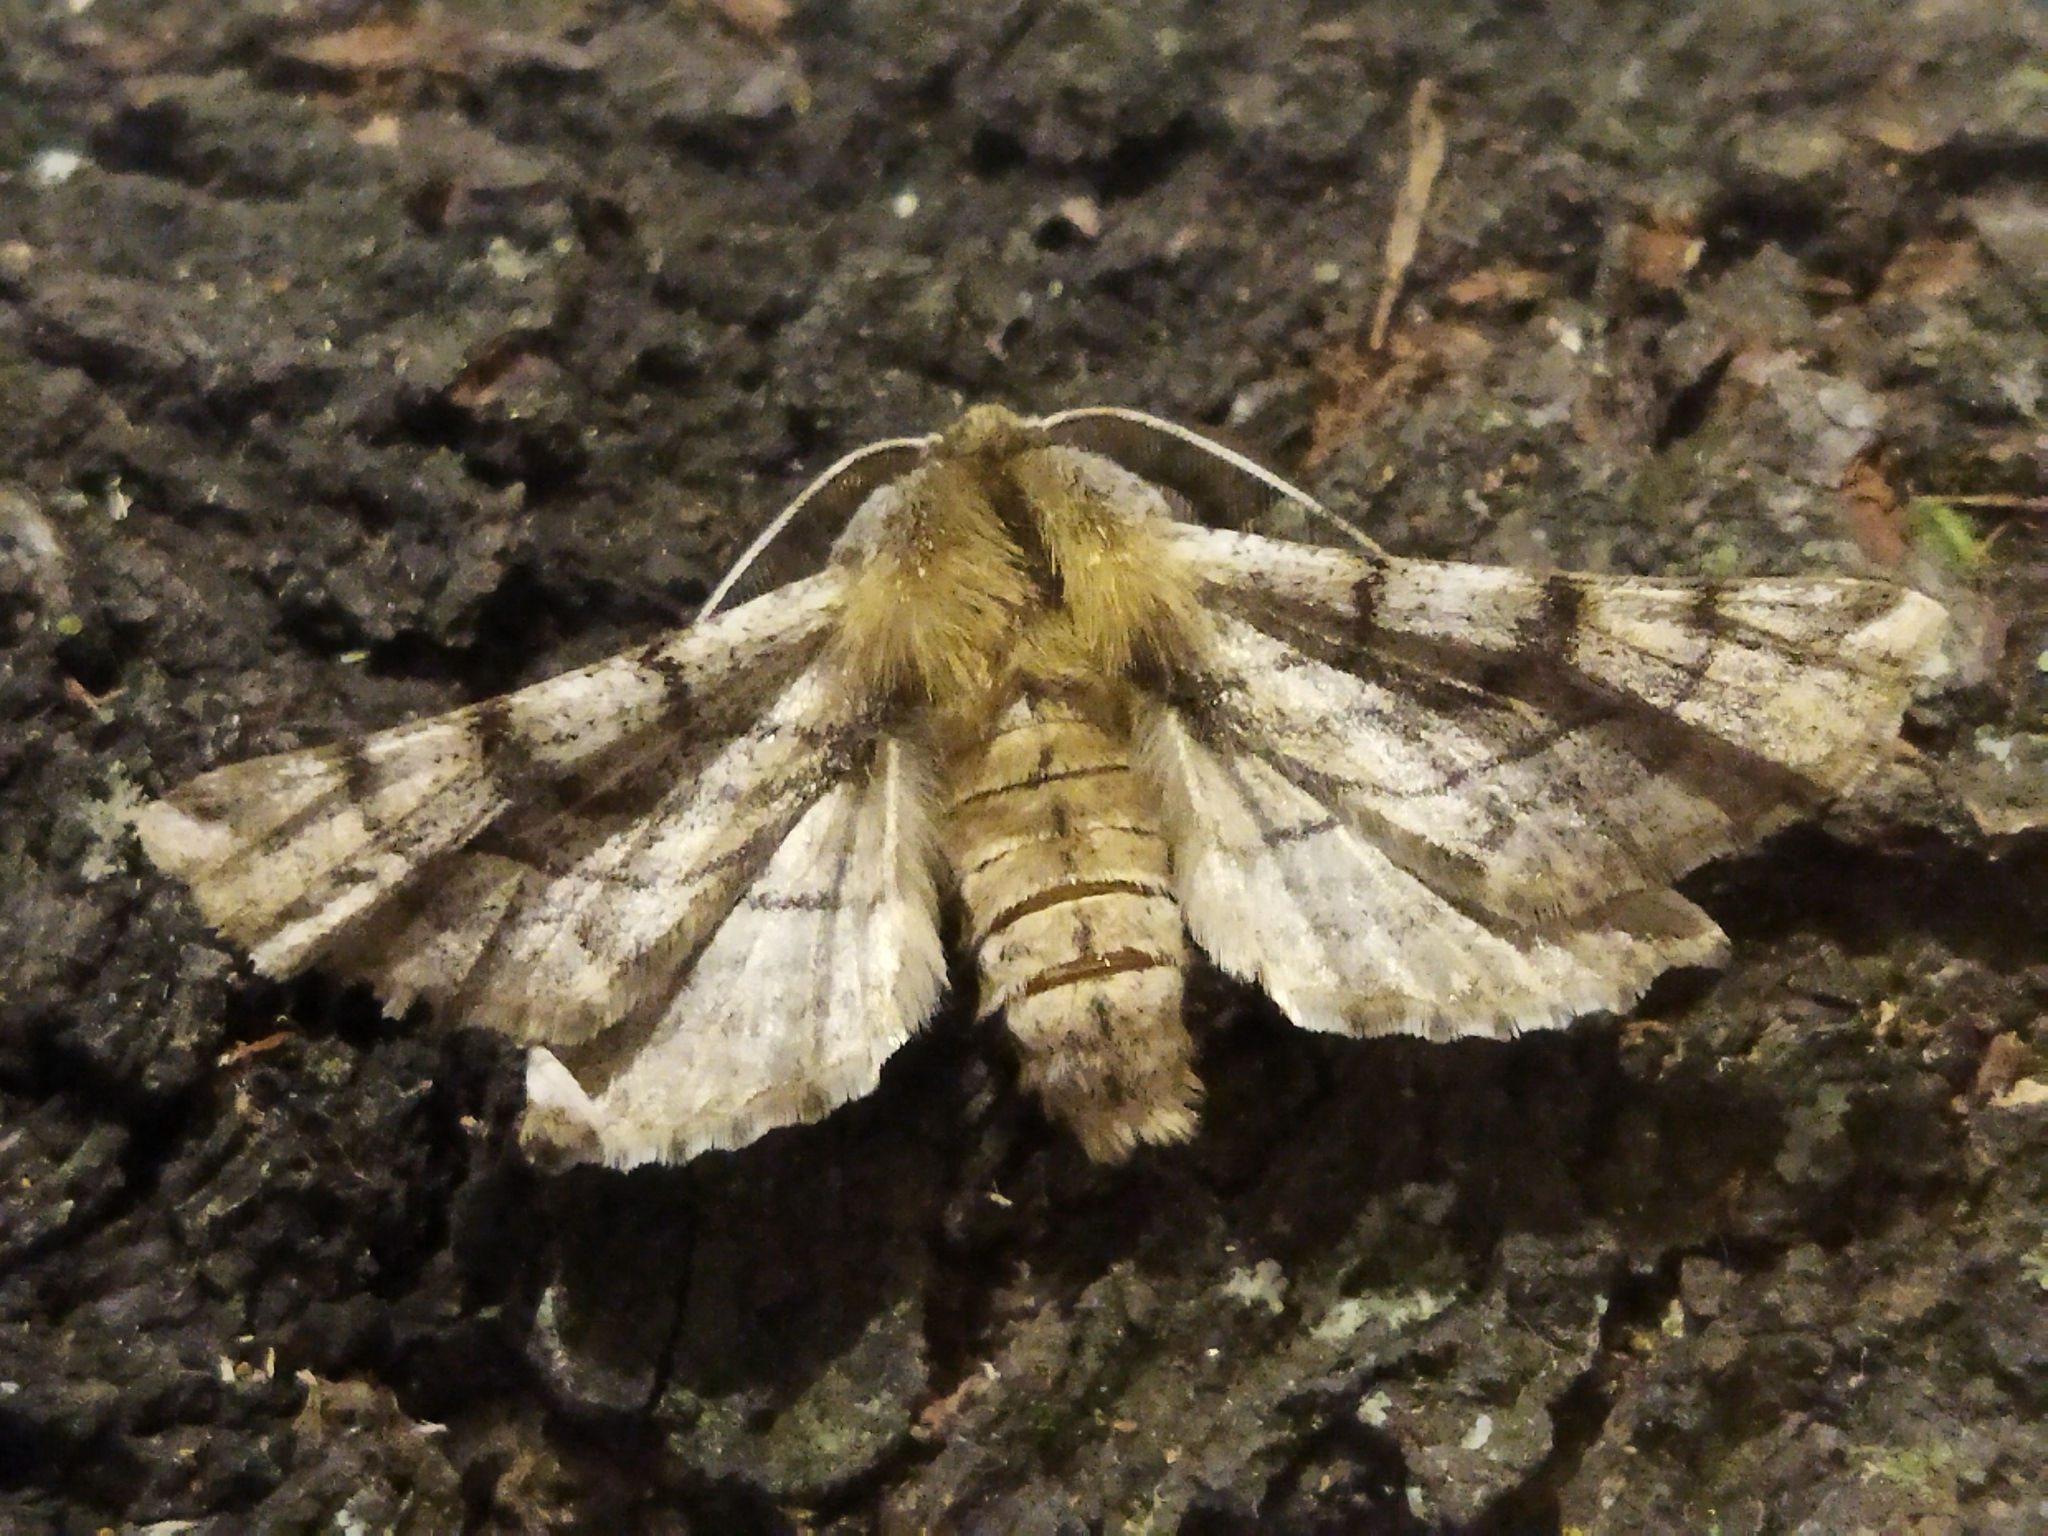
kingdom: Animalia
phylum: Arthropoda
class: Insecta
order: Lepidoptera
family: Geometridae
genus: Apochima
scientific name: Apochima flabellaria
